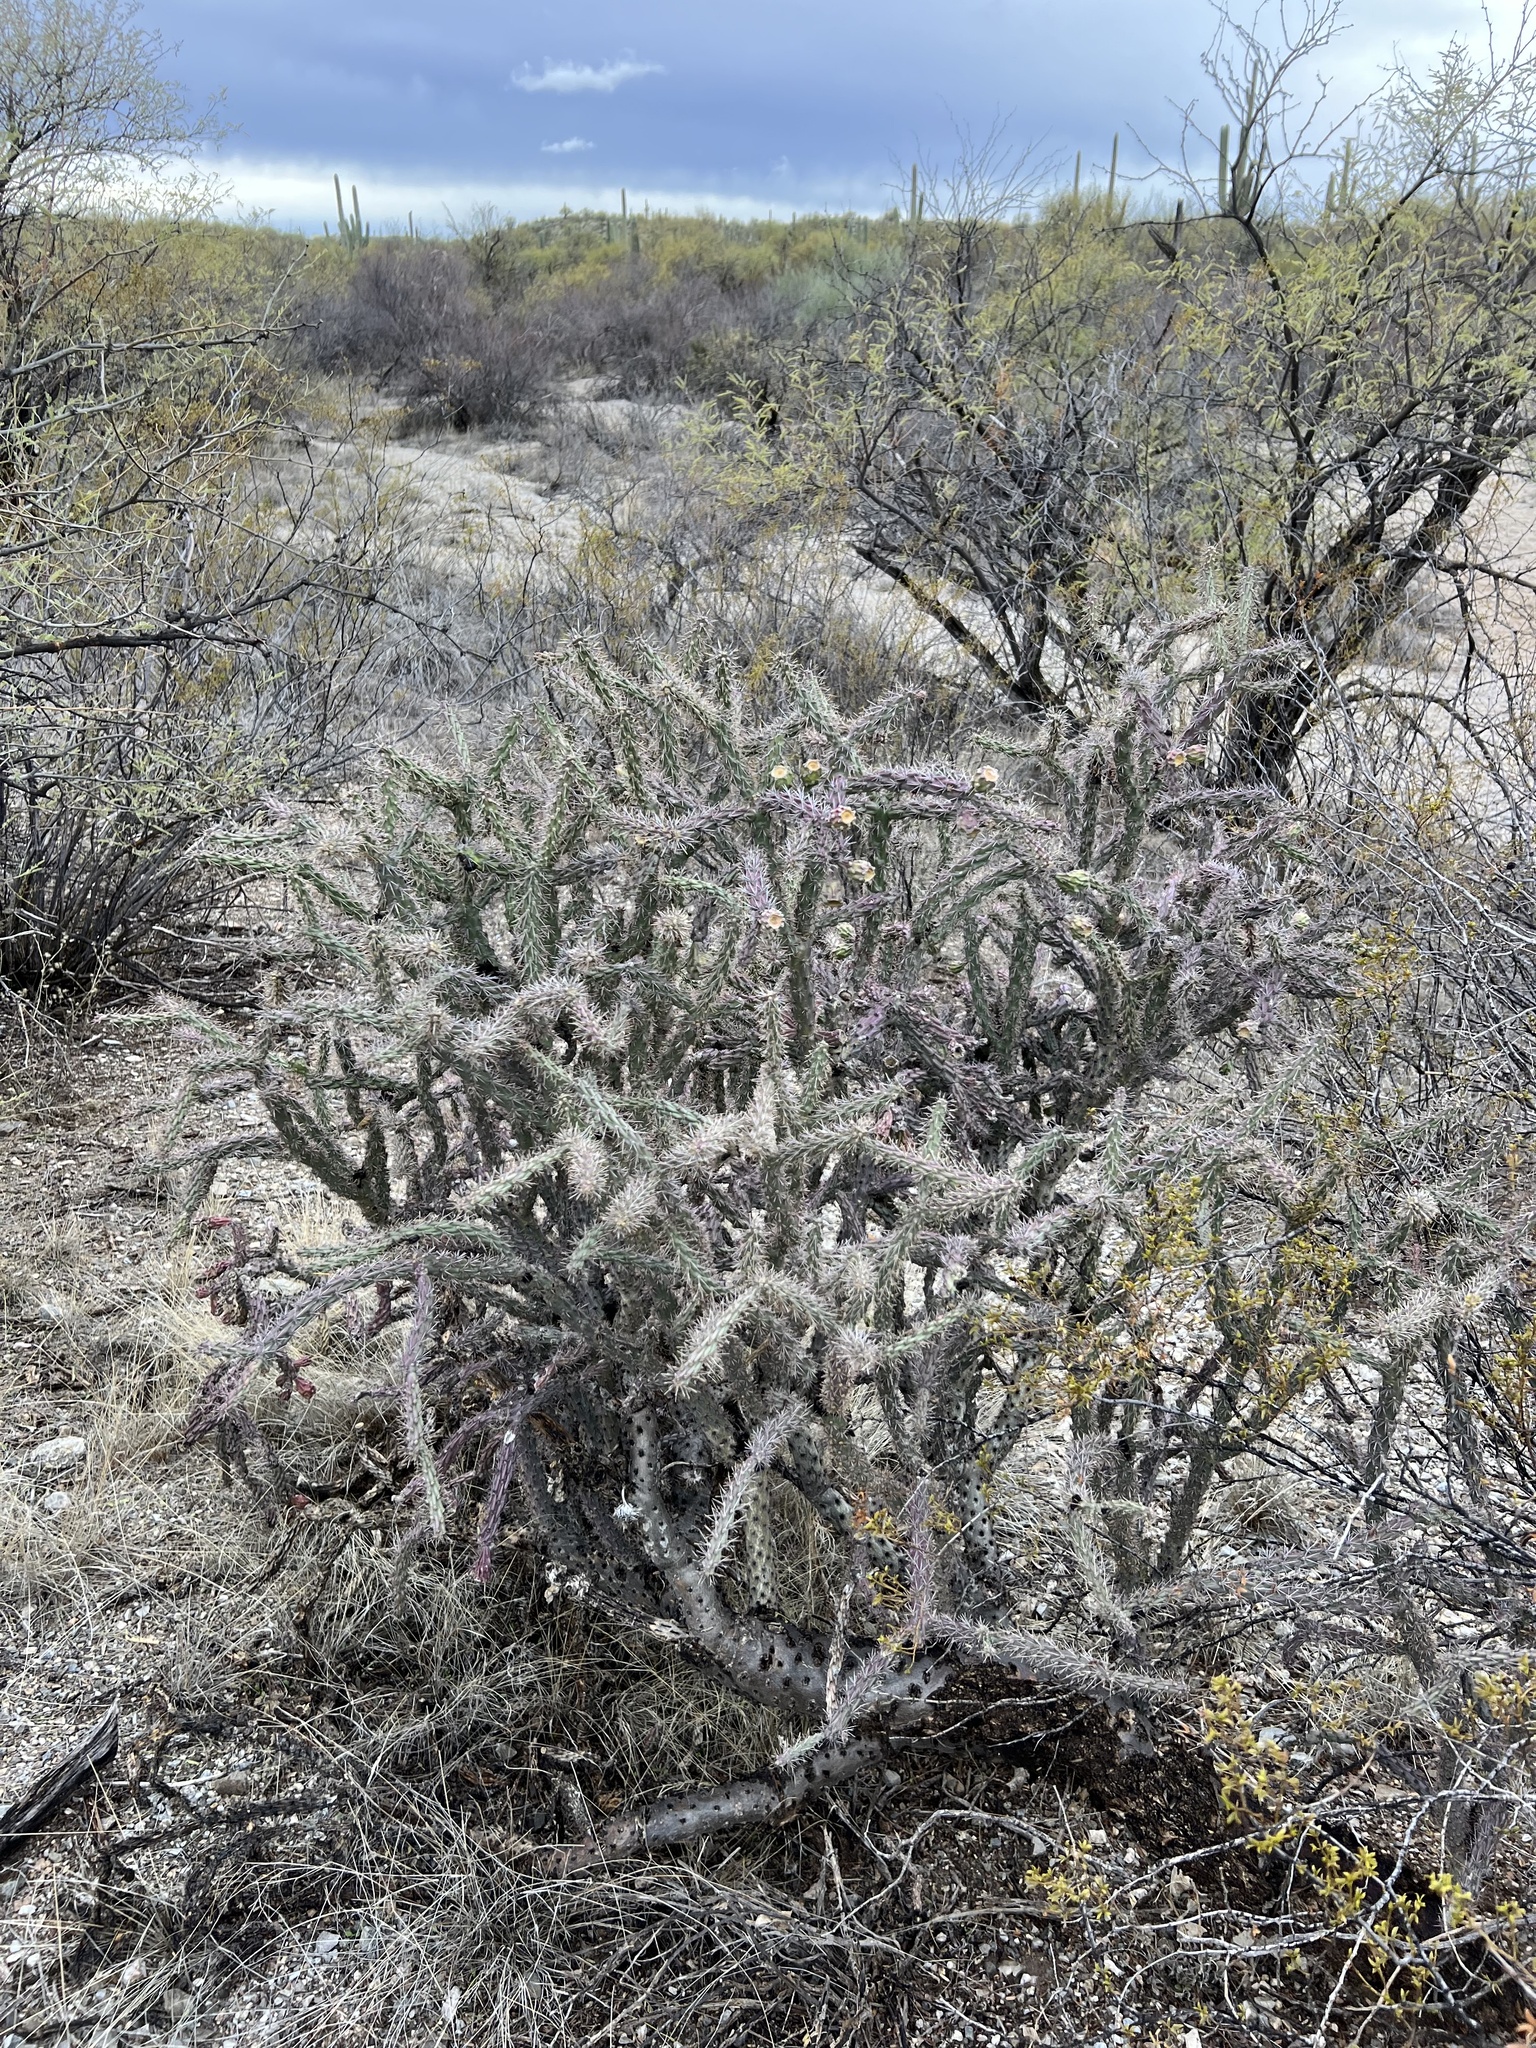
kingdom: Plantae
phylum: Tracheophyta
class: Magnoliopsida
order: Caryophyllales
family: Cactaceae
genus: Cylindropuntia
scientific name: Cylindropuntia thurberi
